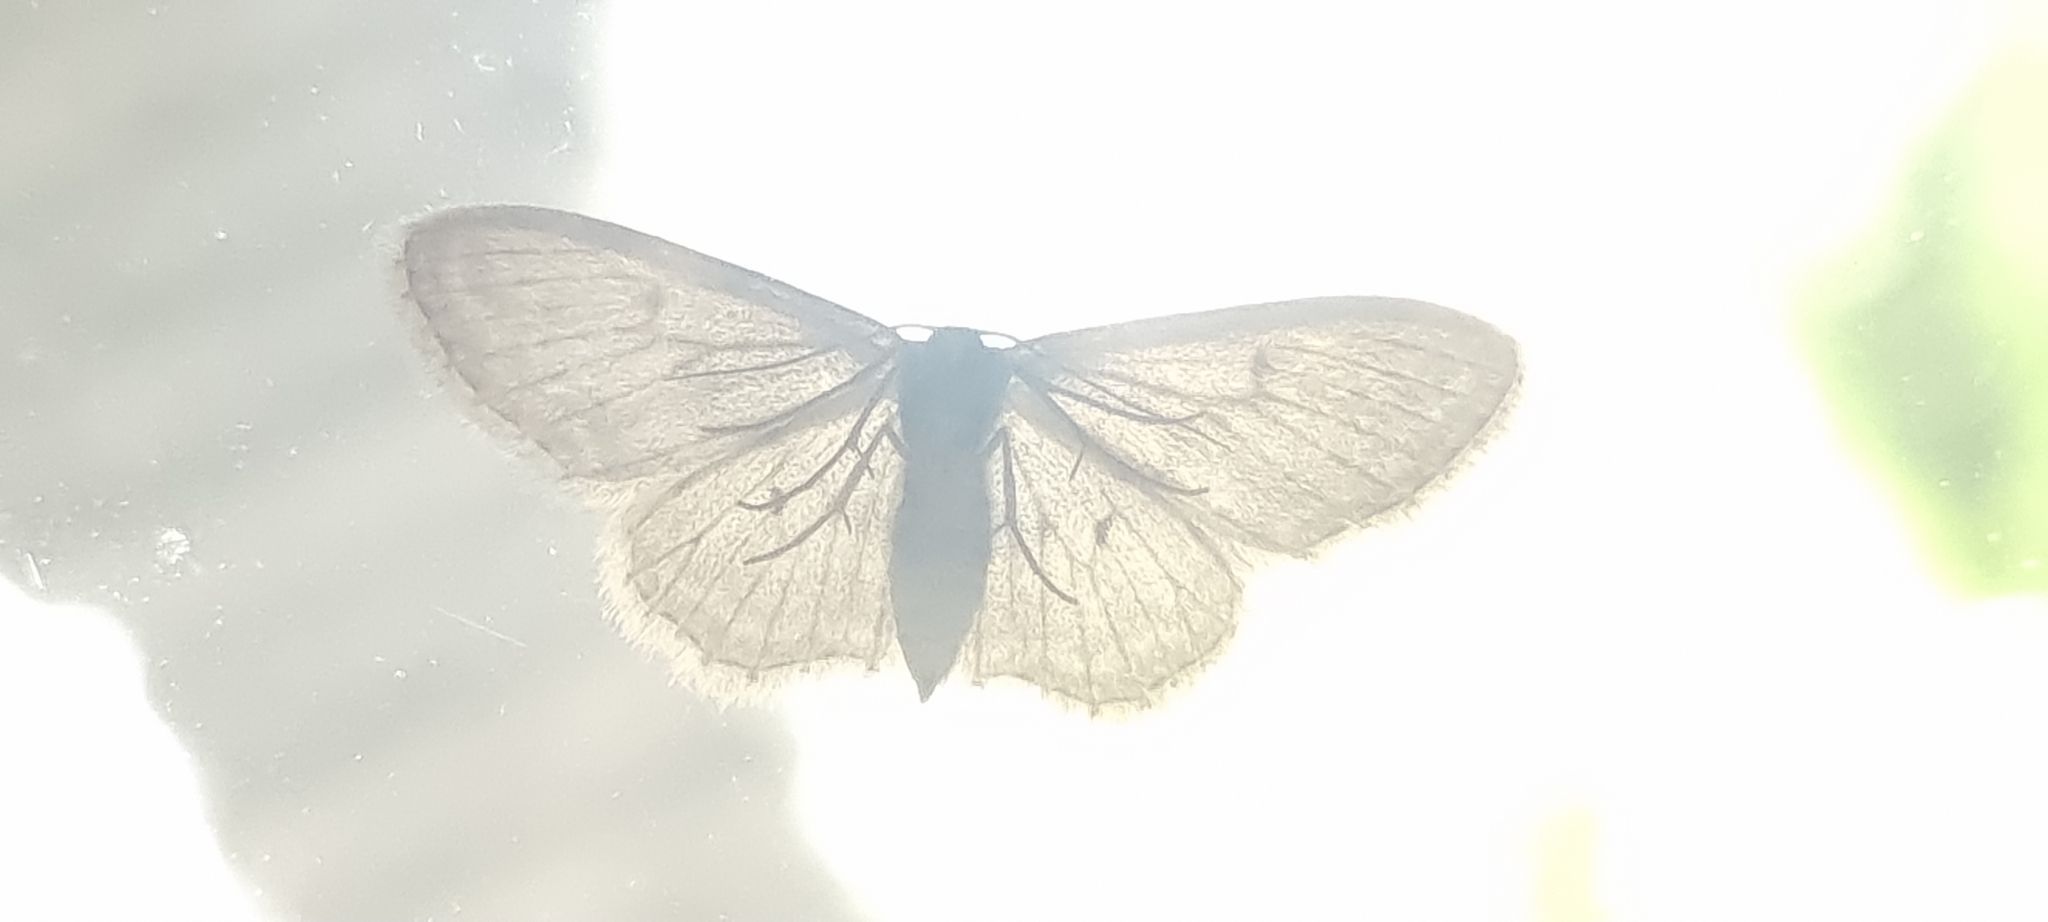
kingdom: Animalia
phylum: Arthropoda
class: Insecta
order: Lepidoptera
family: Geometridae
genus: Idaea
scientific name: Idaea seriata
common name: Small dusty wave
